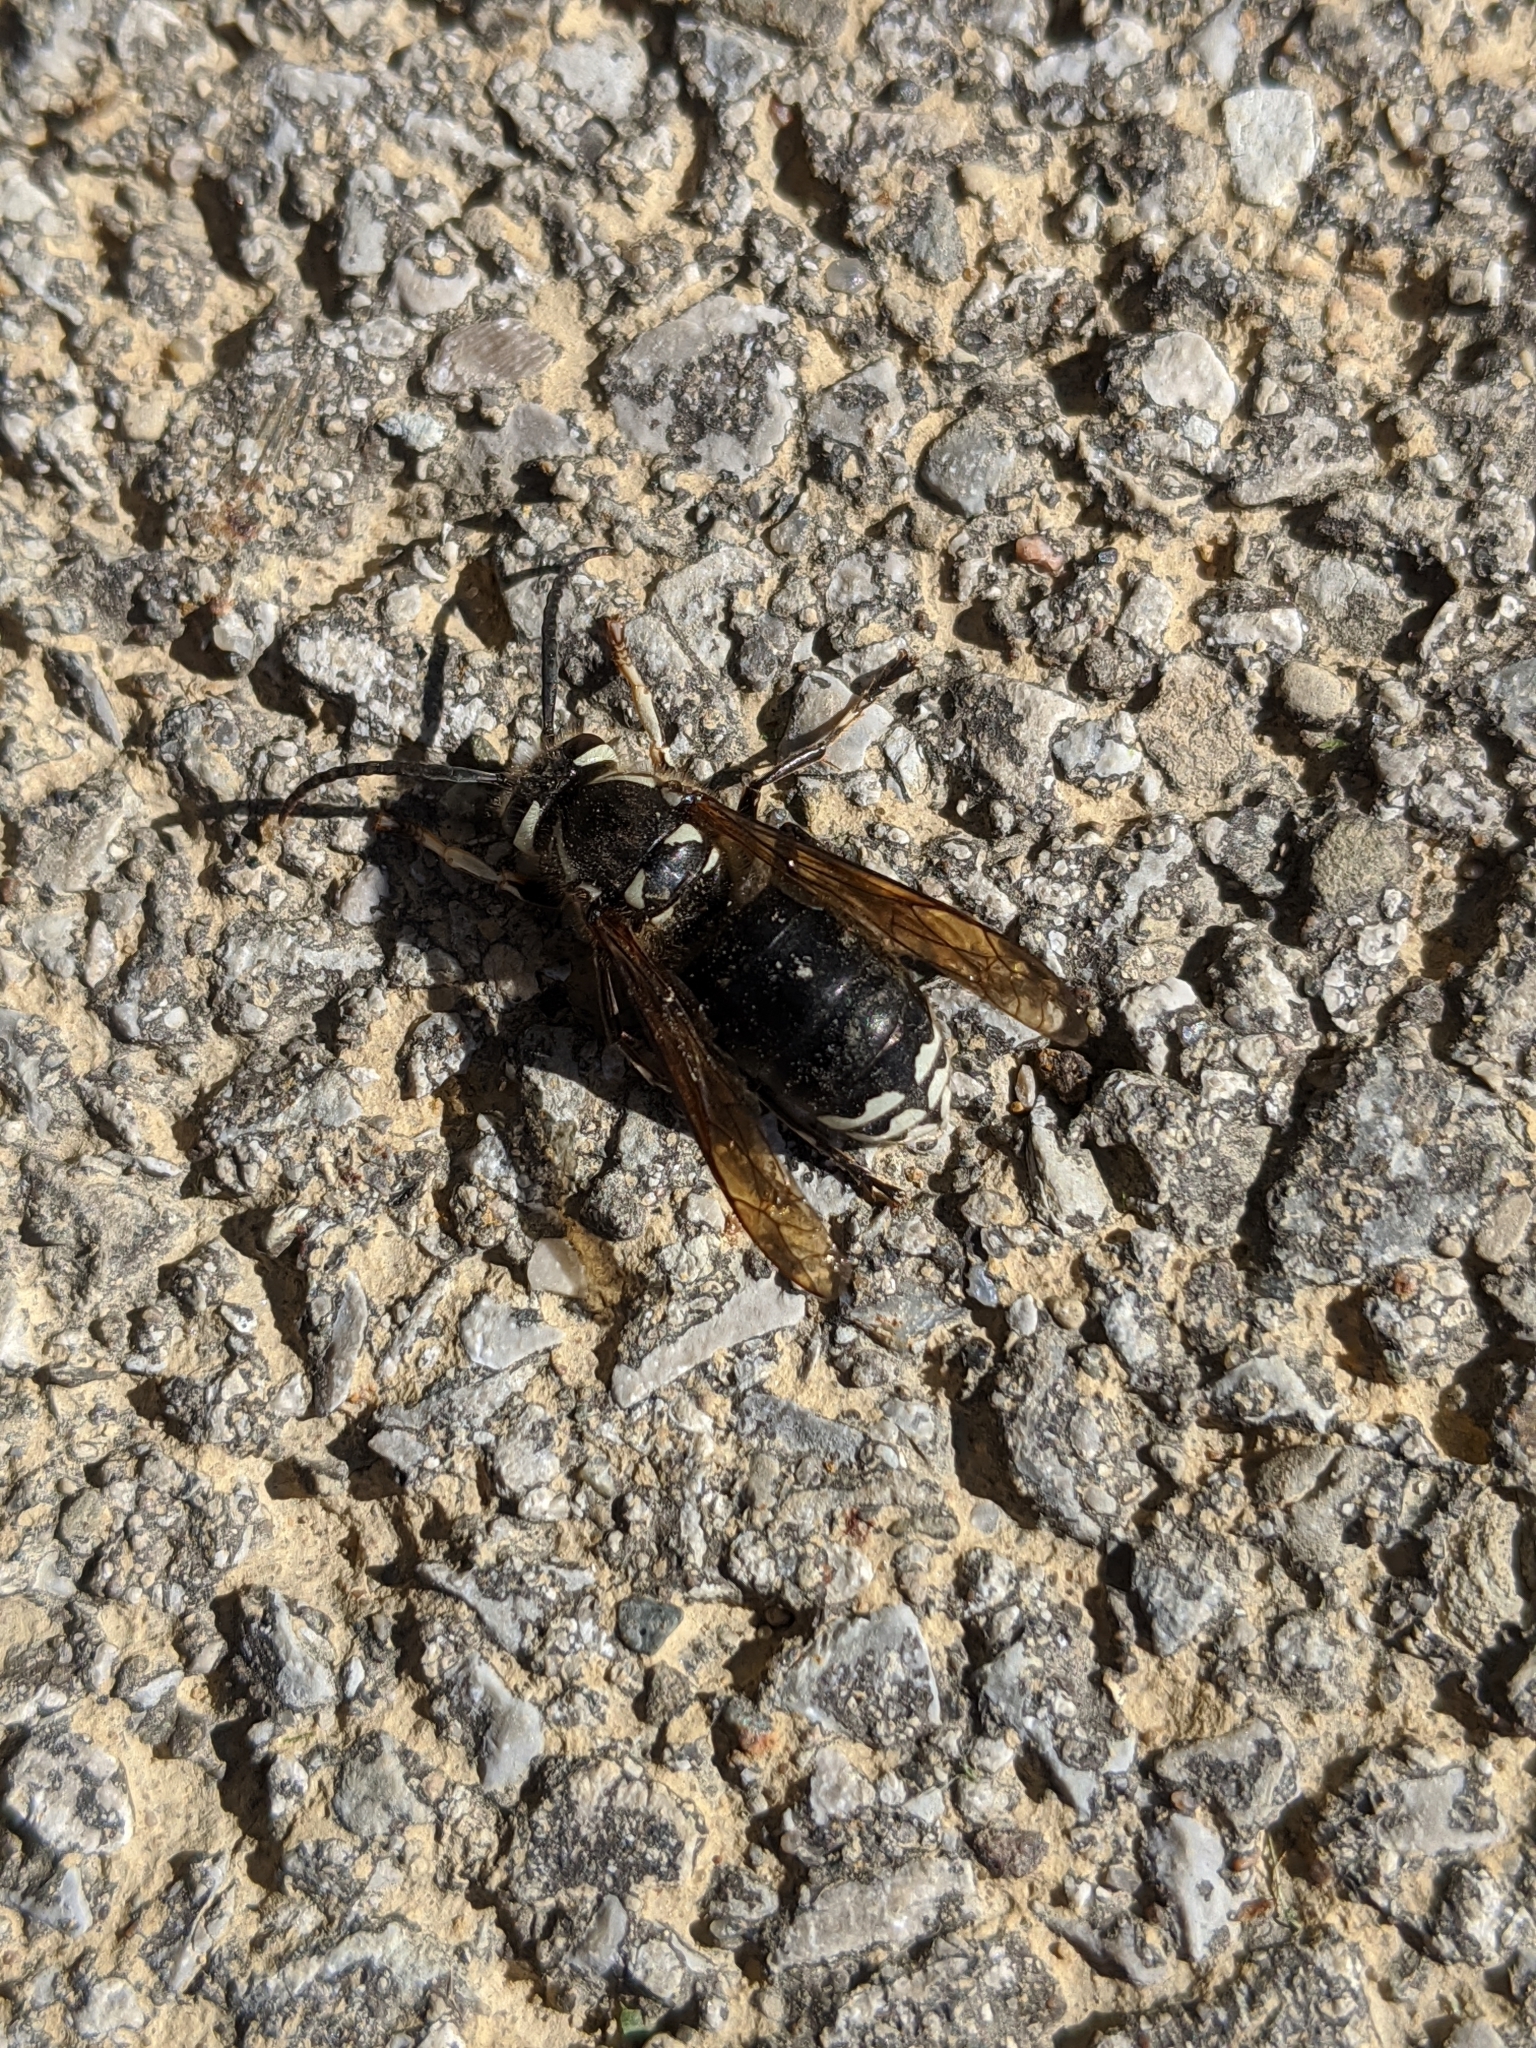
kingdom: Animalia
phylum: Arthropoda
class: Insecta
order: Hymenoptera
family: Vespidae
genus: Dolichovespula
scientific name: Dolichovespula maculata
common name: Bald-faced hornet
